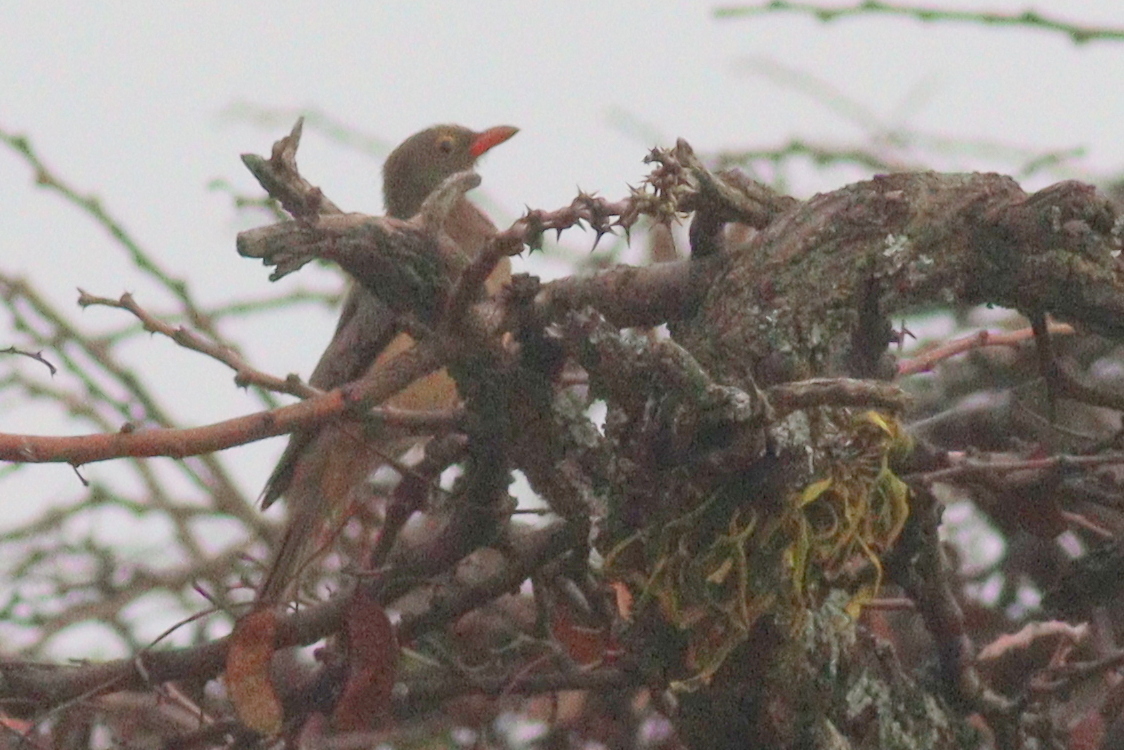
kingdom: Animalia
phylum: Chordata
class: Aves
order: Passeriformes
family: Buphagidae
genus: Buphagus
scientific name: Buphagus erythrorhynchus
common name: Red-billed oxpecker
